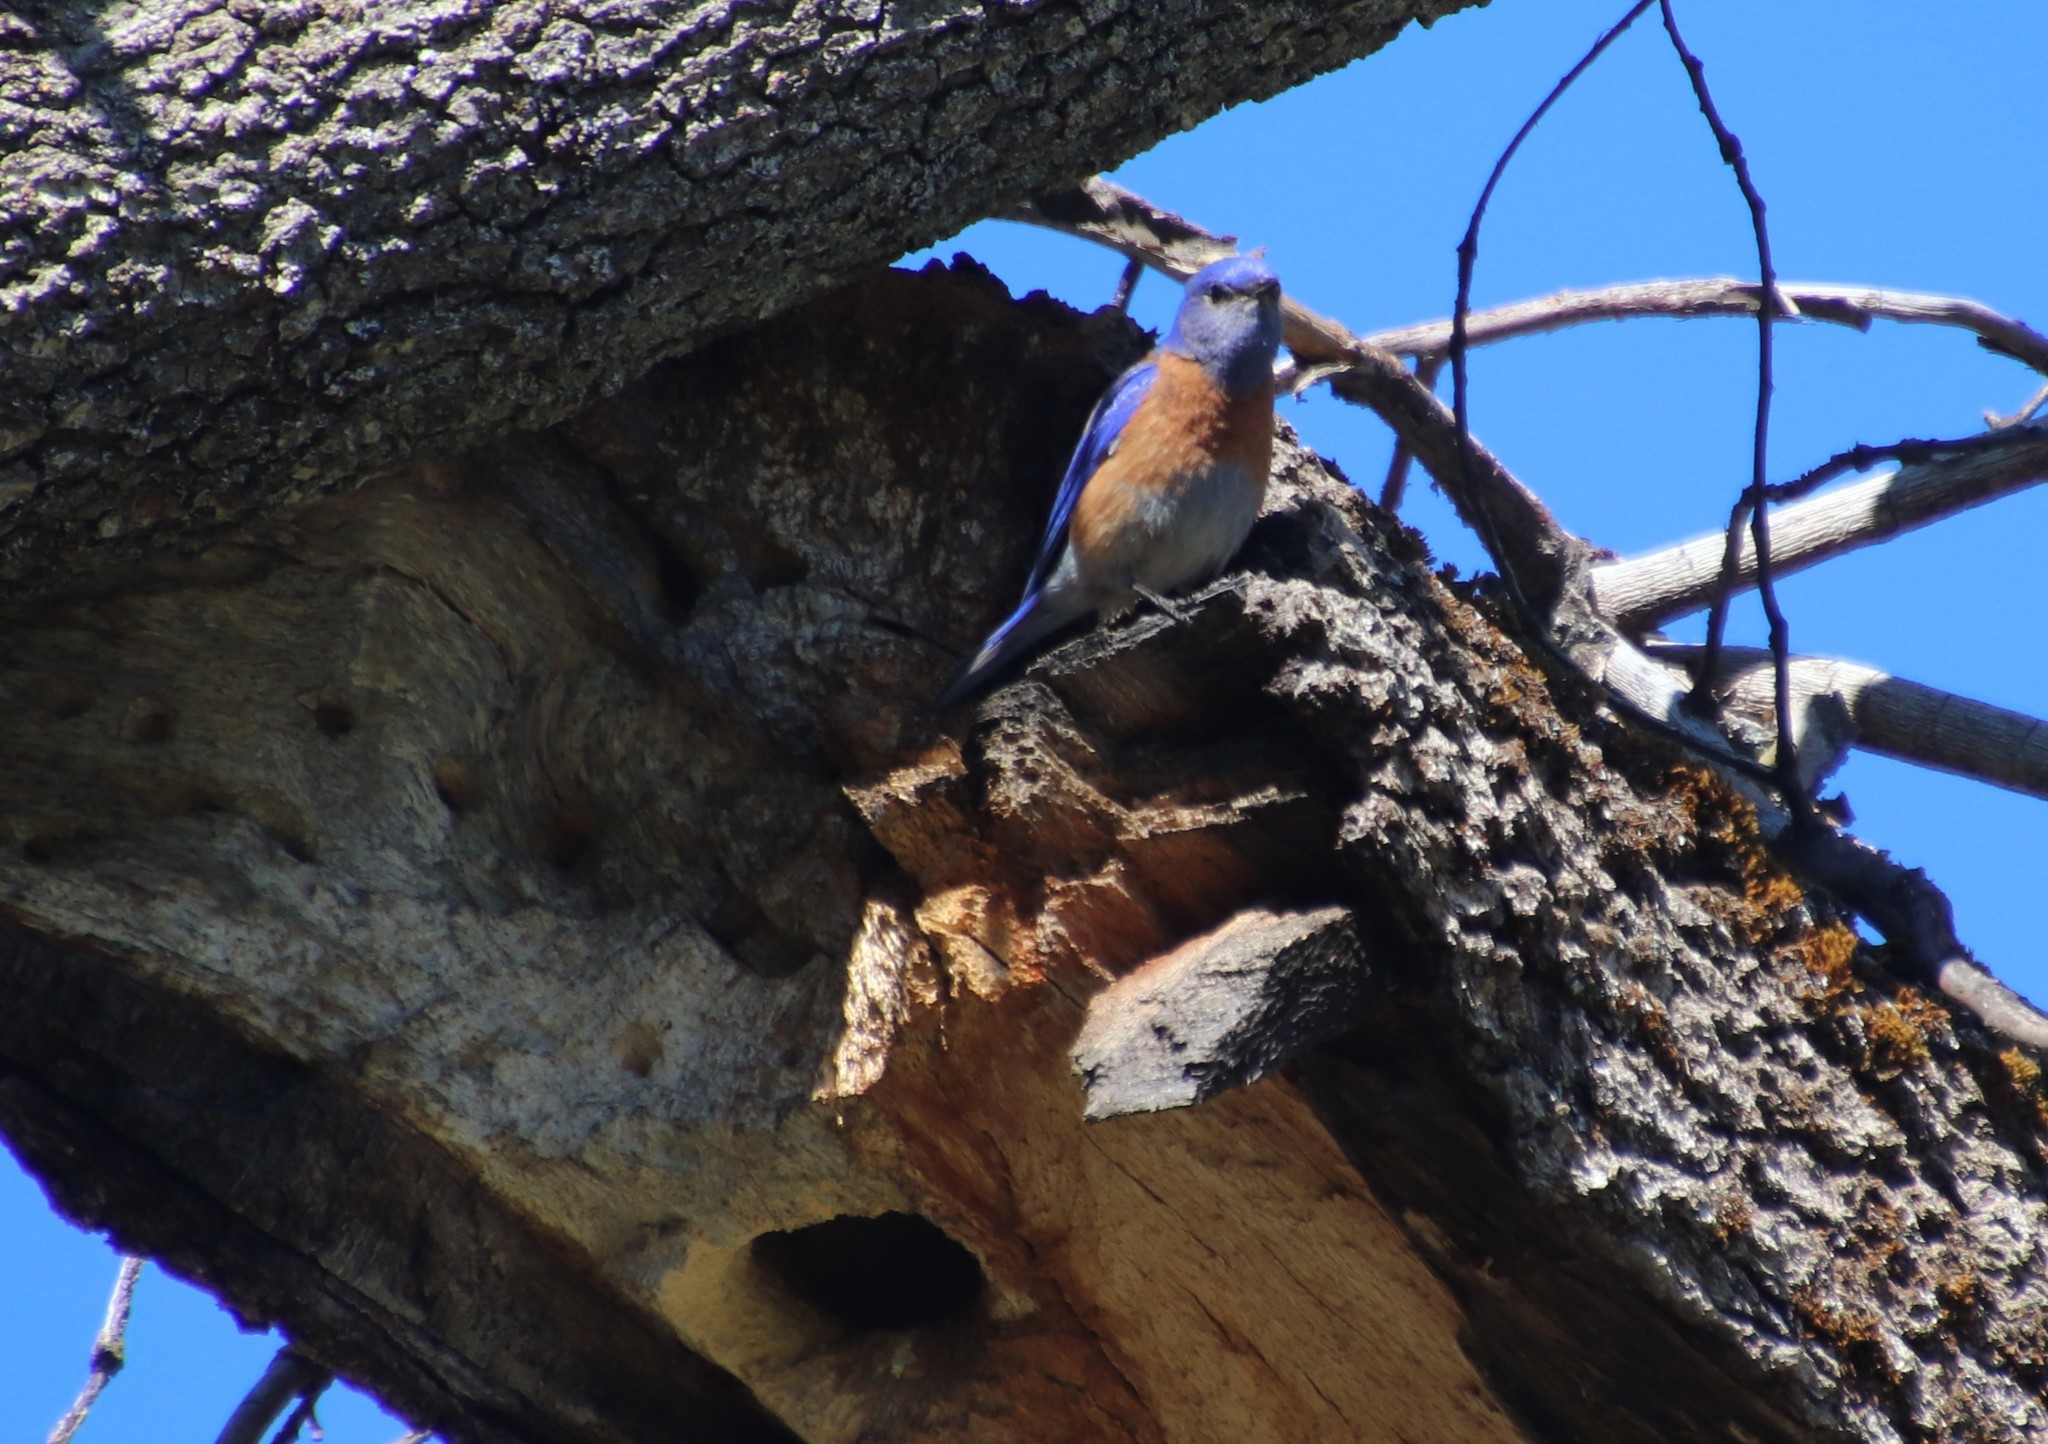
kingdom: Animalia
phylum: Chordata
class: Aves
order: Passeriformes
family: Turdidae
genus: Sialia
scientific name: Sialia mexicana
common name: Western bluebird
